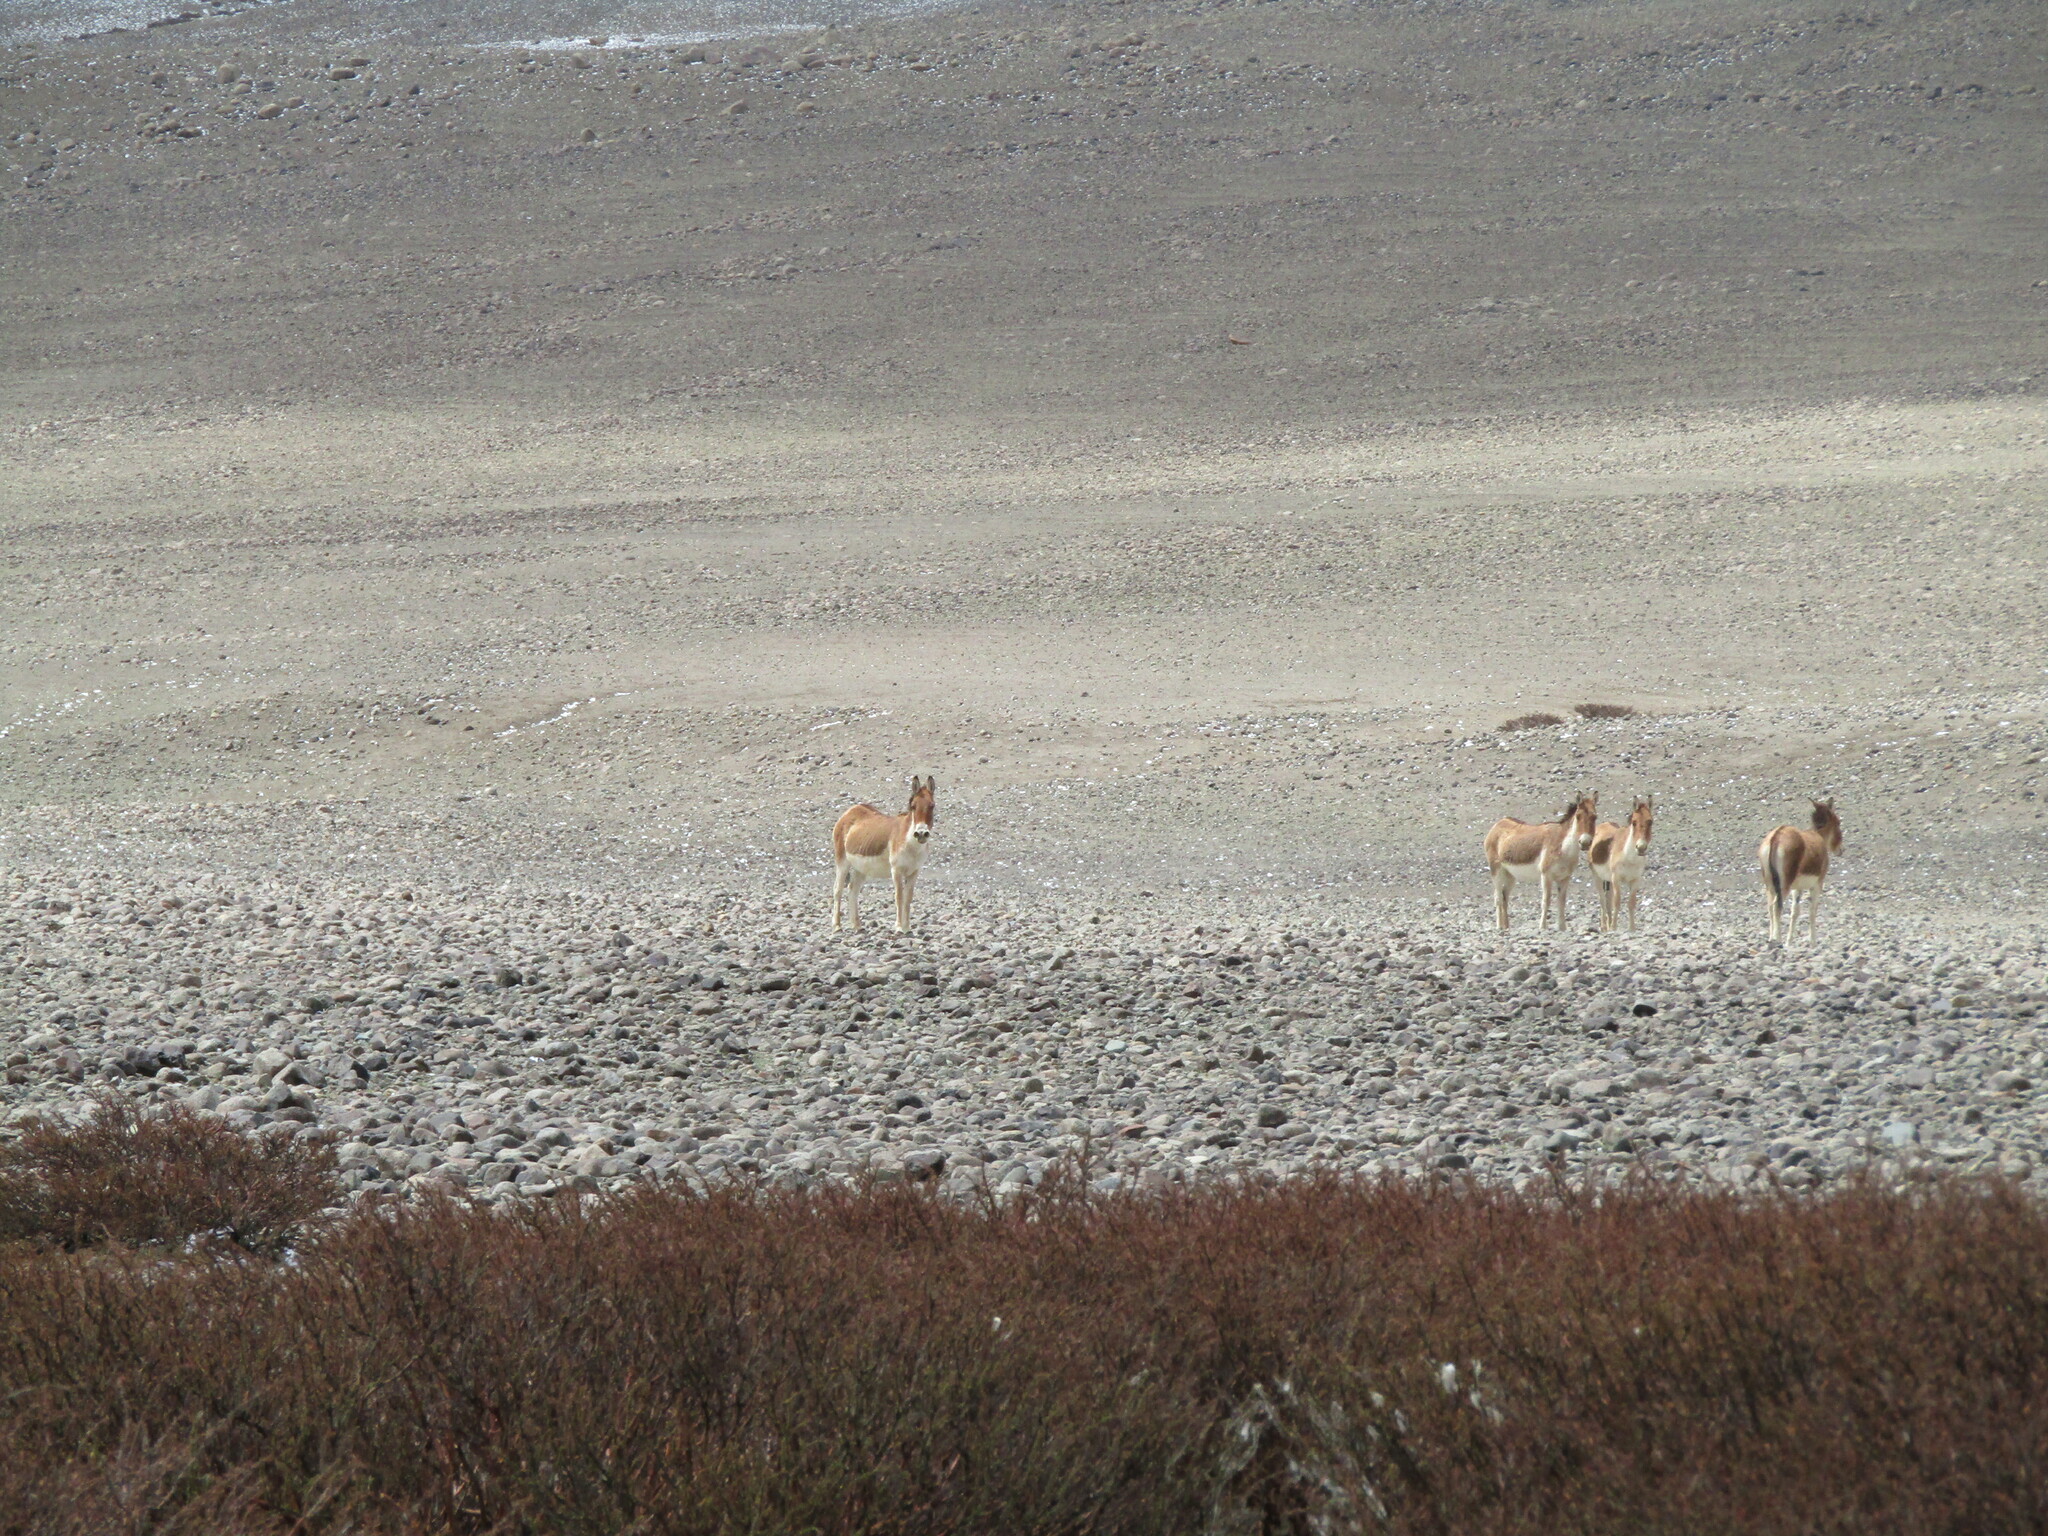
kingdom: Animalia
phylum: Chordata
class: Mammalia
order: Perissodactyla
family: Equidae
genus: Equus
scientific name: Equus kiang
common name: Kiang
